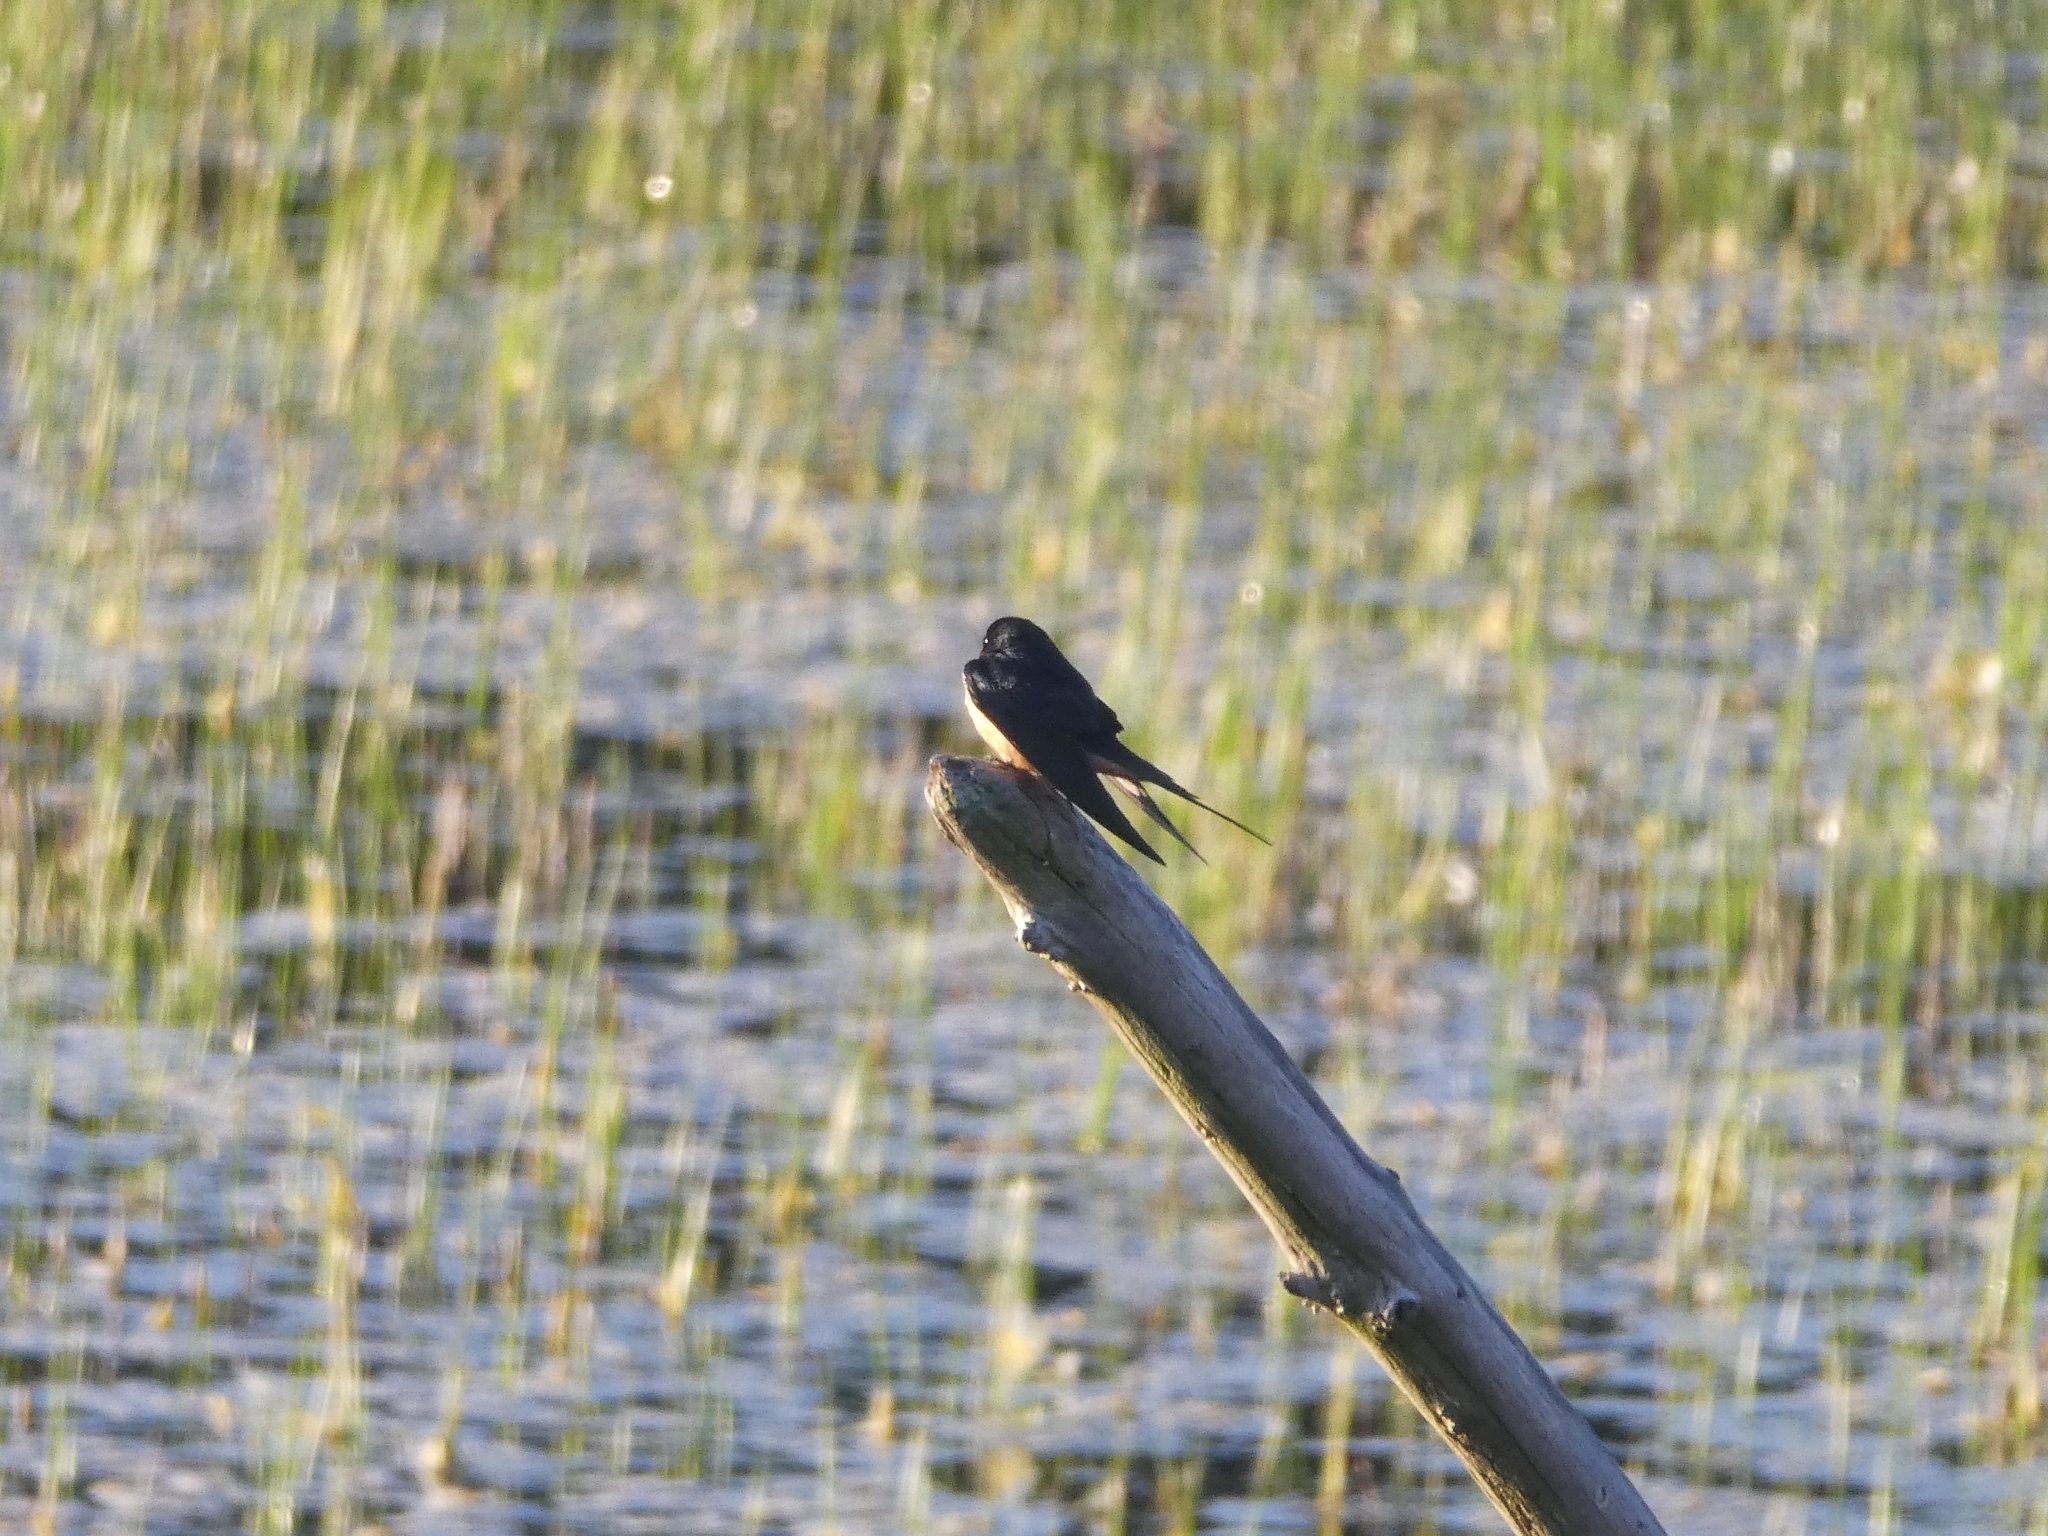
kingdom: Animalia
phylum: Chordata
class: Aves
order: Passeriformes
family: Hirundinidae
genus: Hirundo
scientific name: Hirundo rustica
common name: Barn swallow
